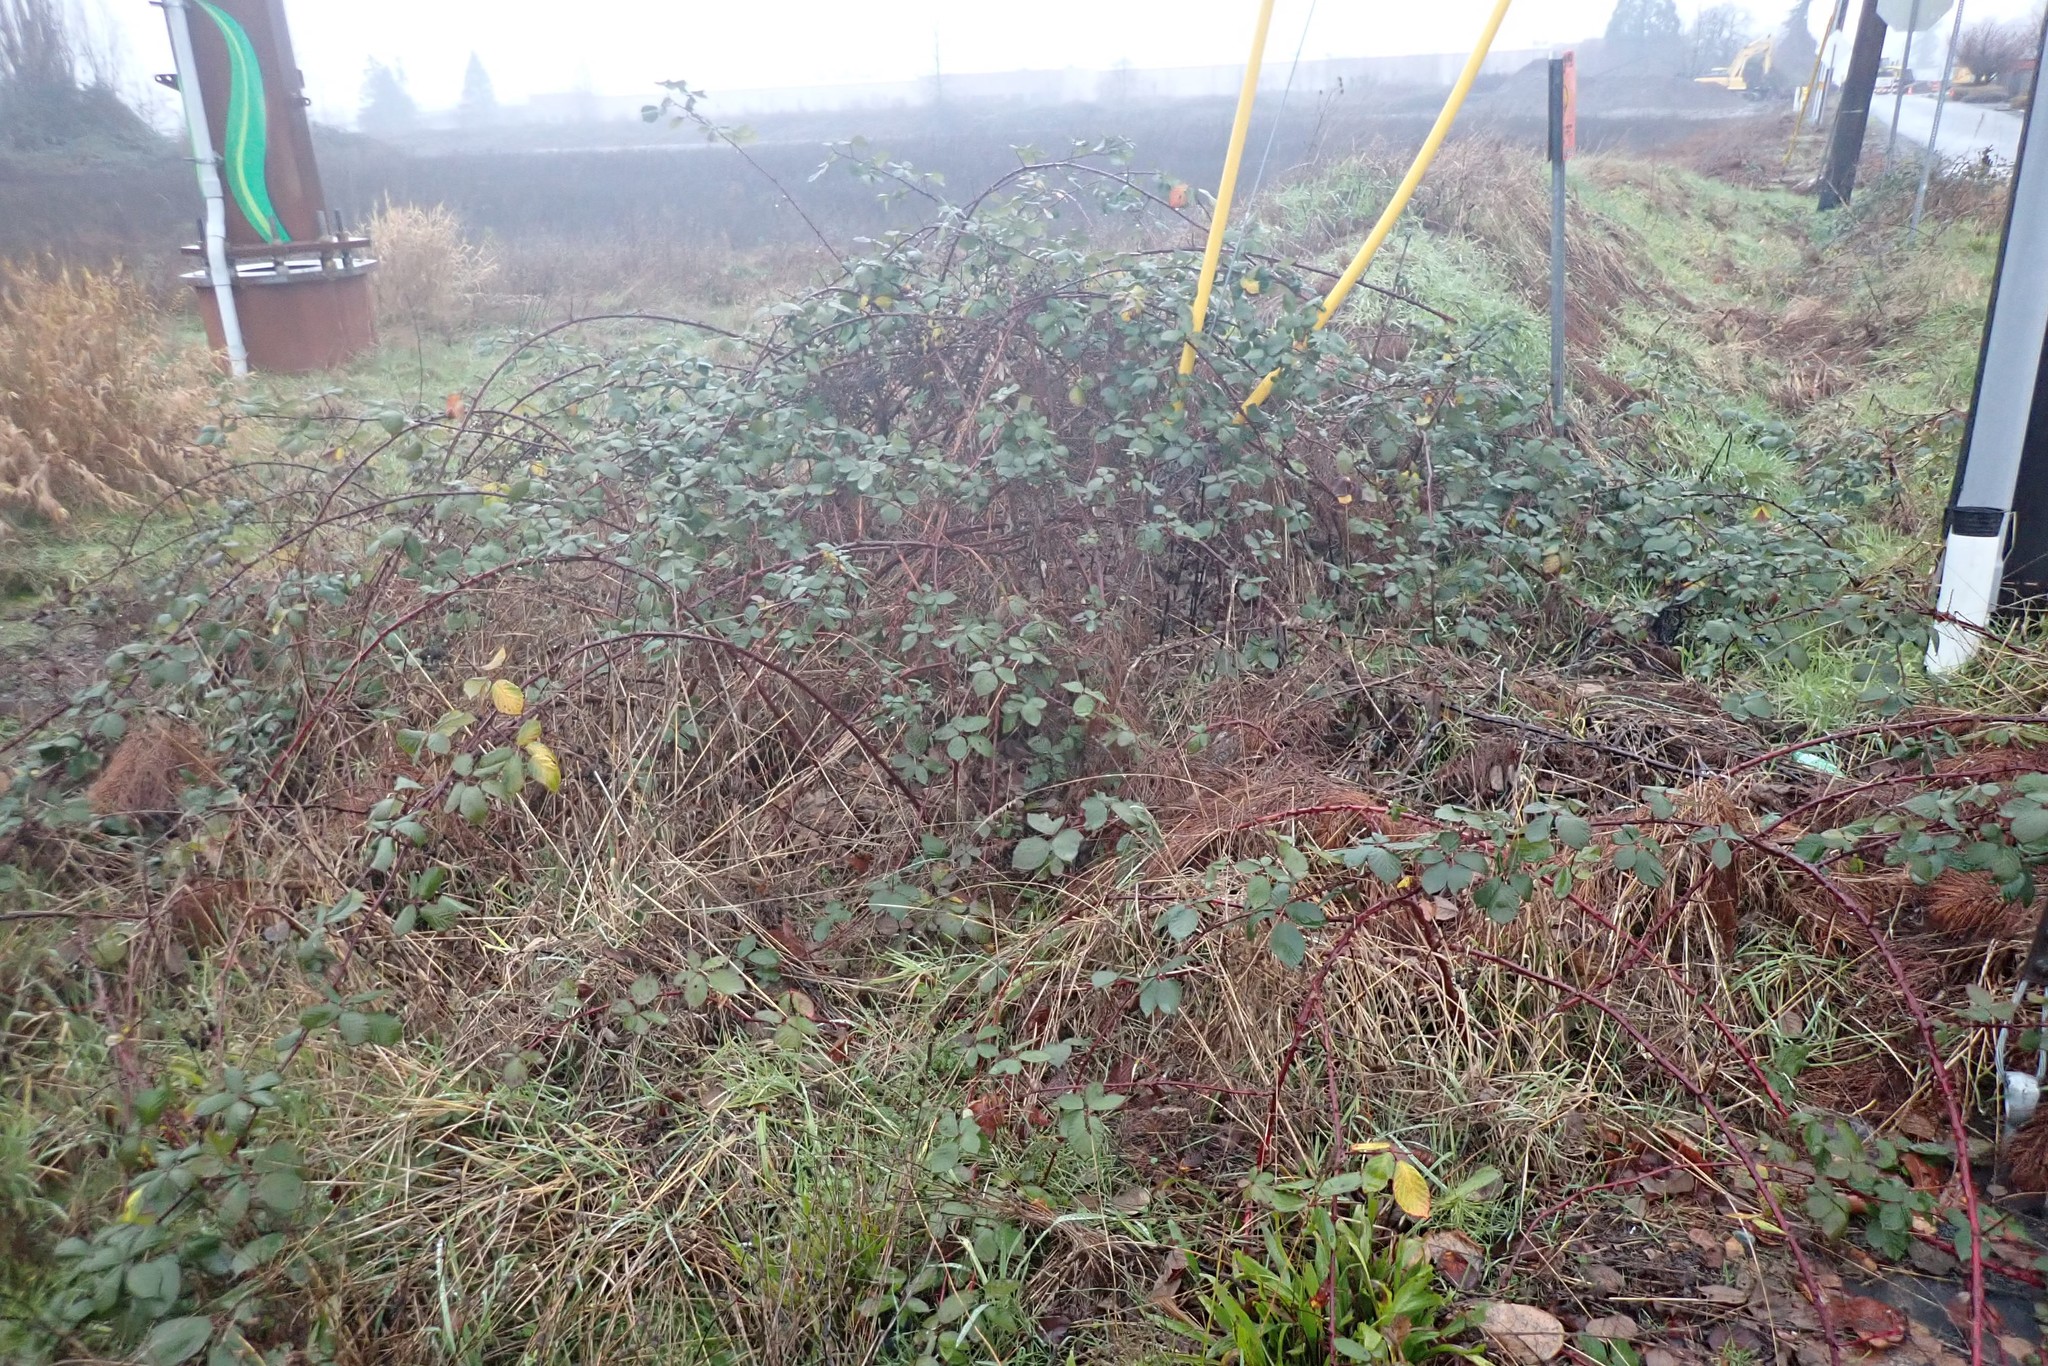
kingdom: Plantae
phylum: Tracheophyta
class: Magnoliopsida
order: Rosales
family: Rosaceae
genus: Rubus
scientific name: Rubus bifrons
